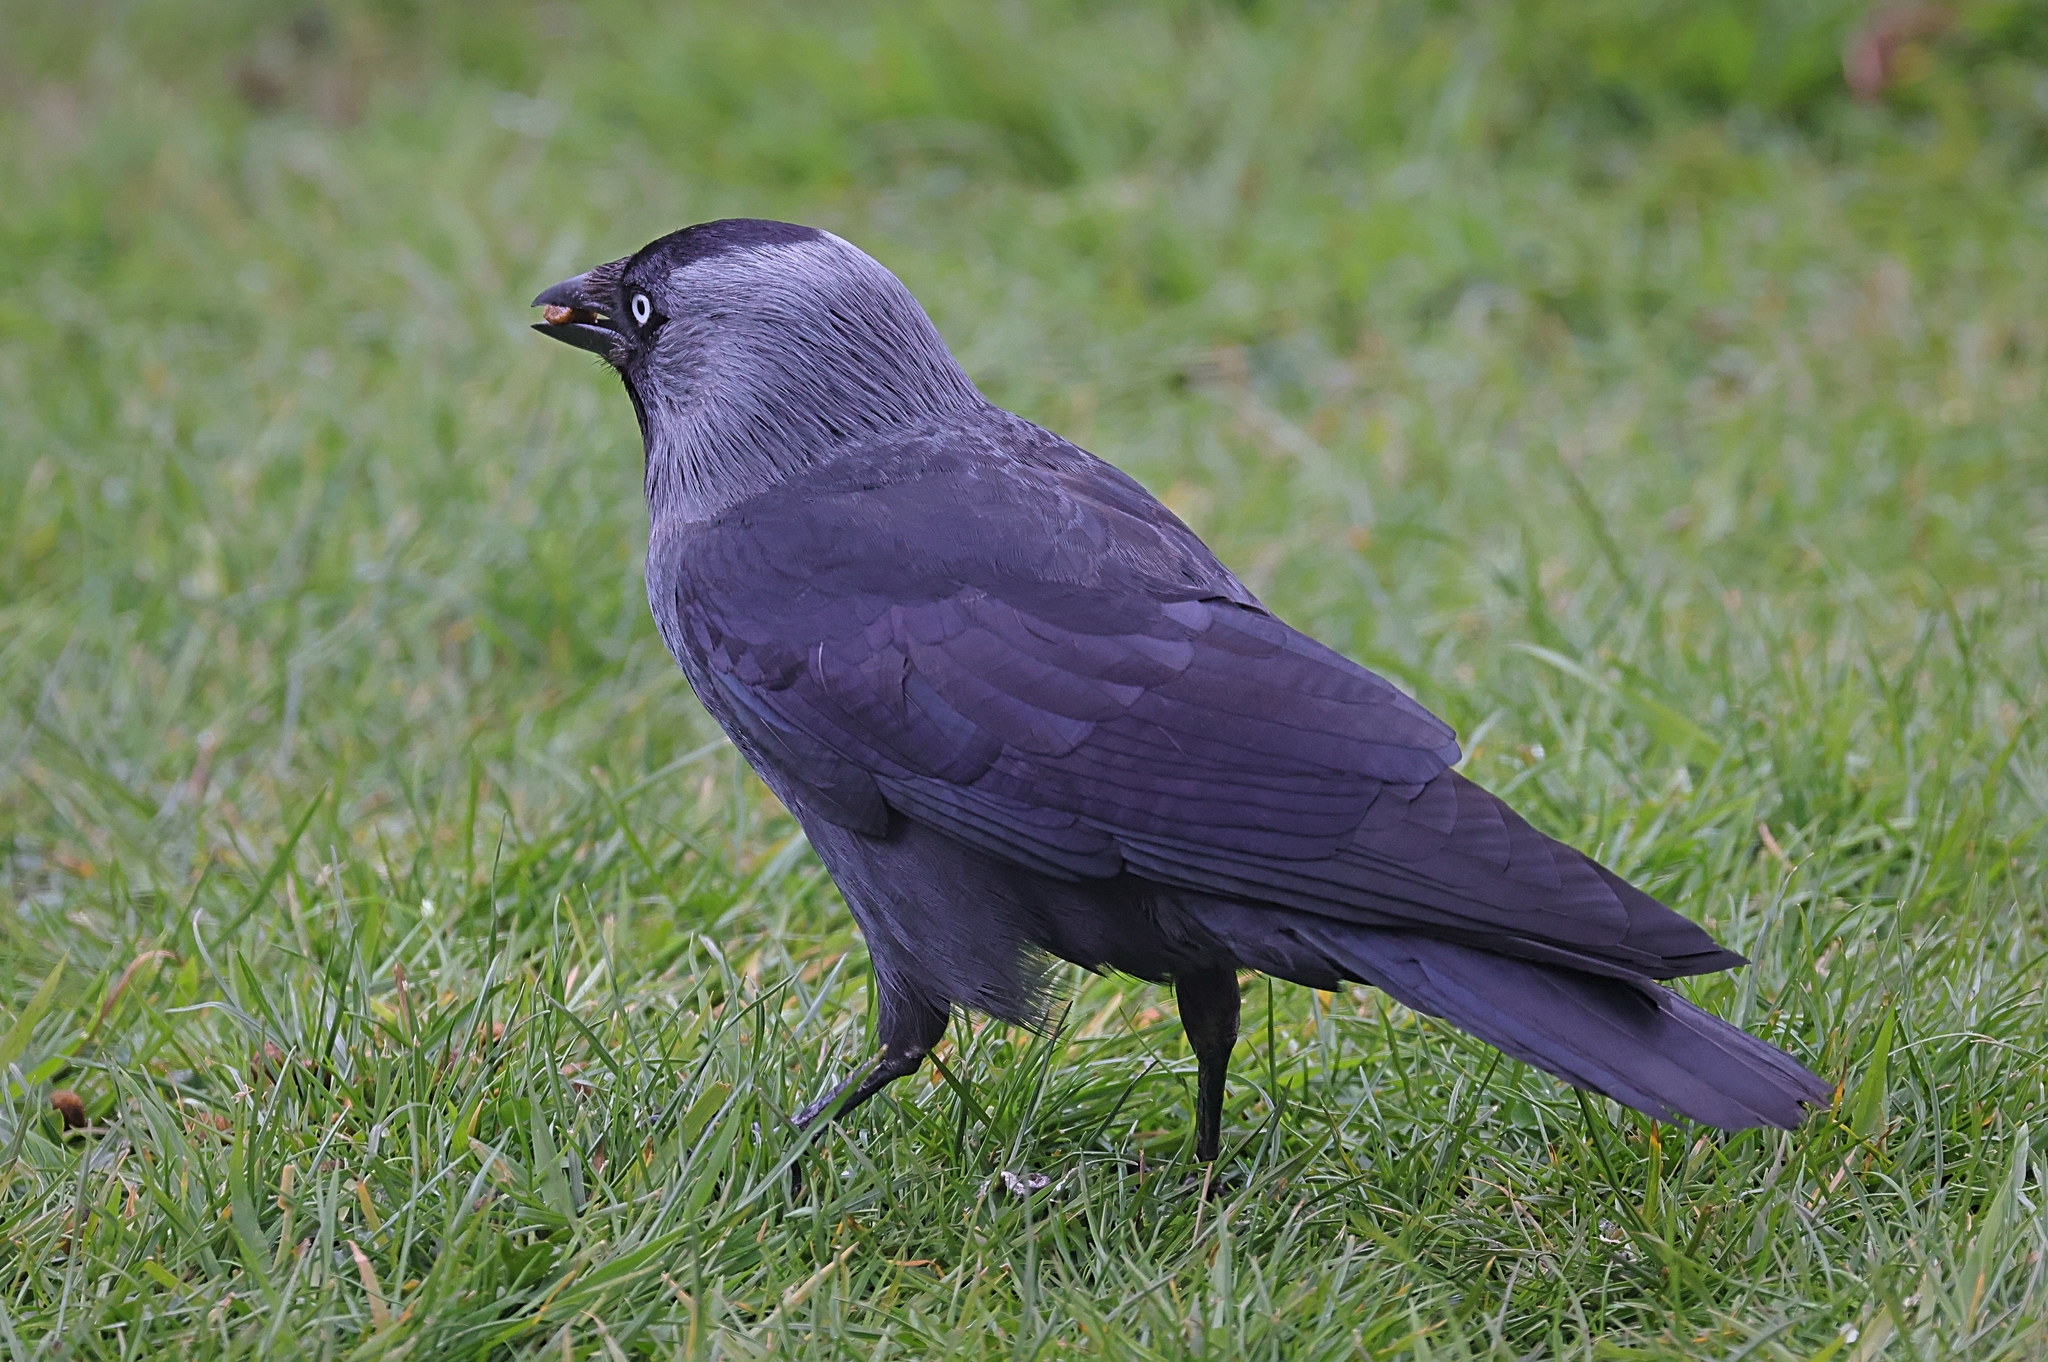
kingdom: Animalia
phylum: Chordata
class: Aves
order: Passeriformes
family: Corvidae
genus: Coloeus
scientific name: Coloeus monedula
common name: Western jackdaw
